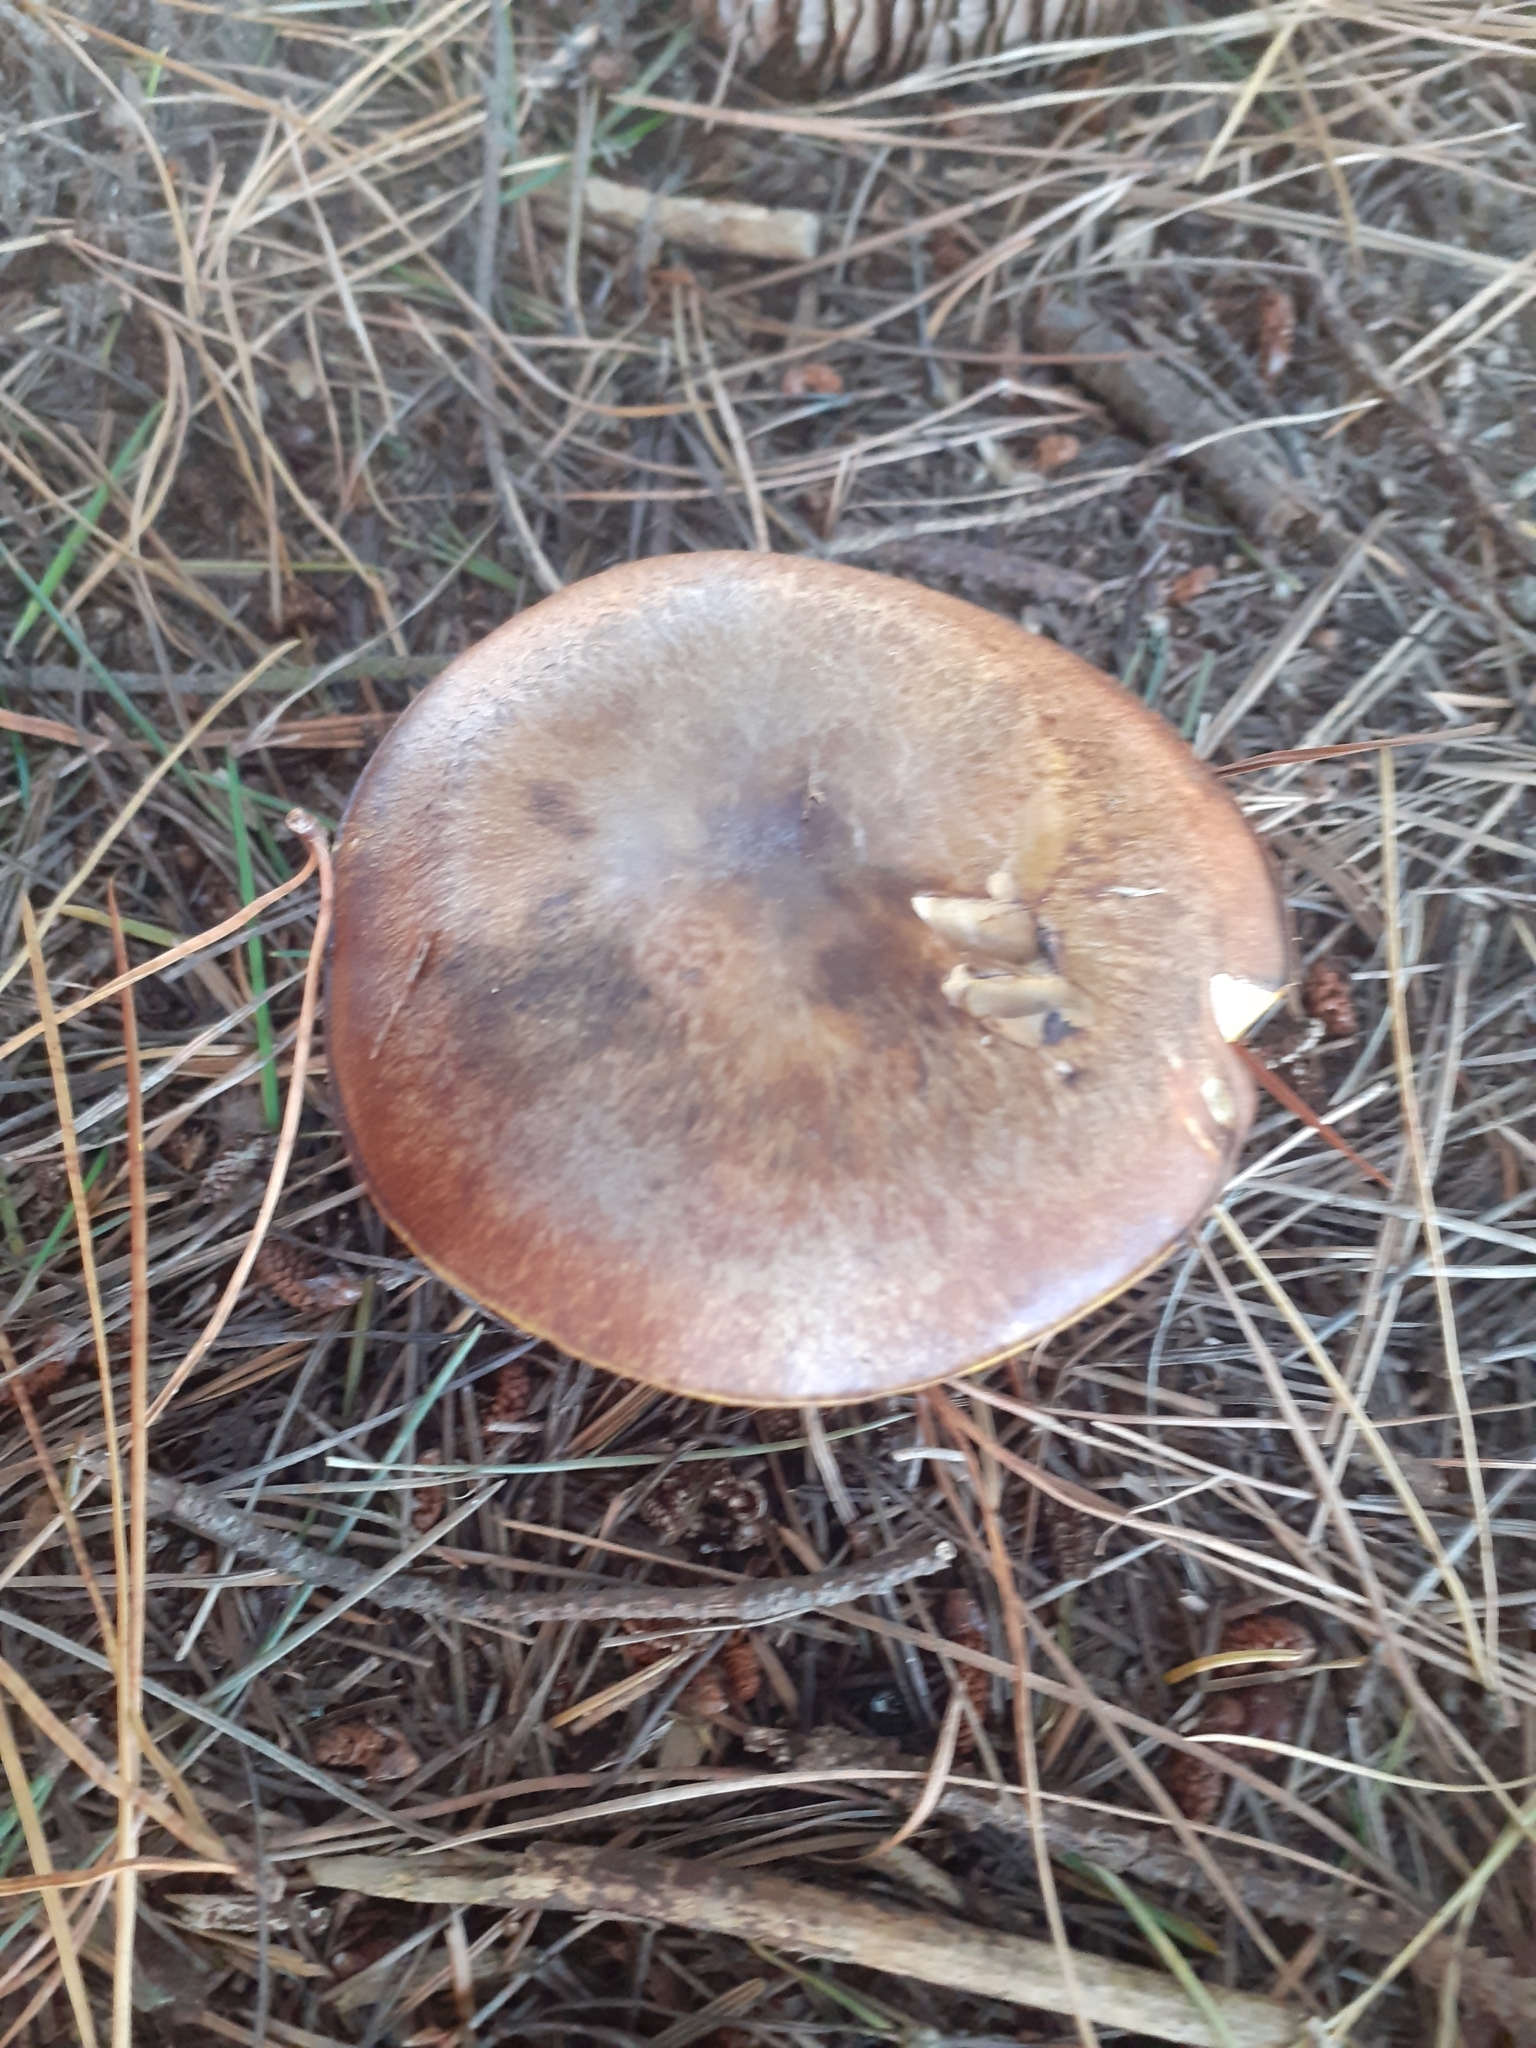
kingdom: Fungi
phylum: Basidiomycota
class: Agaricomycetes
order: Boletales
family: Suillaceae
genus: Suillus
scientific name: Suillus luteus
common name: Slippery jack
